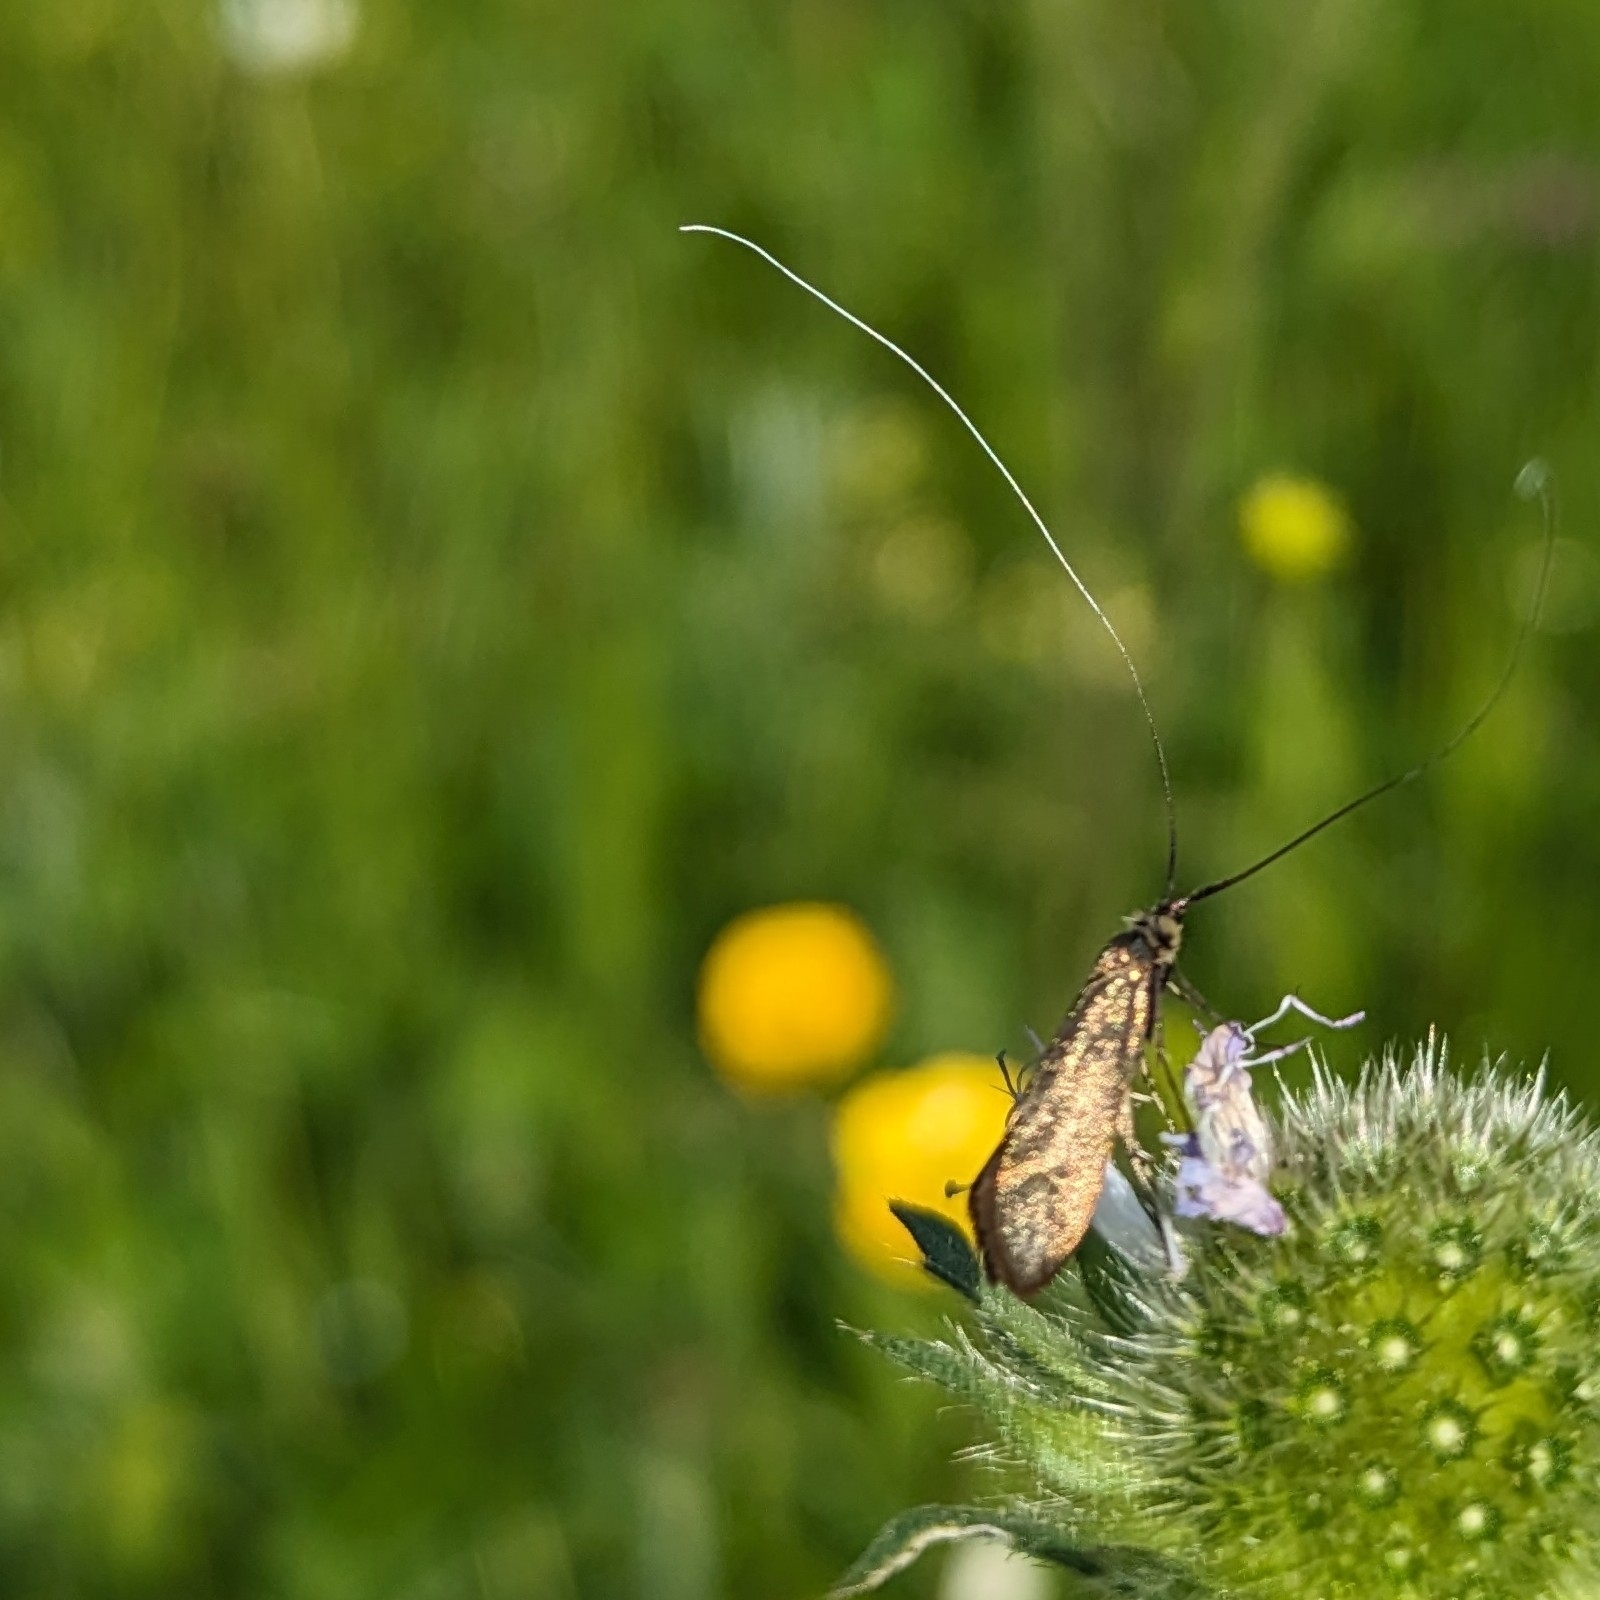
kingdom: Animalia
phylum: Arthropoda
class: Insecta
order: Lepidoptera
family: Adelidae
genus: Nemophora
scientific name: Nemophora metallica
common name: Brassy long-horn
